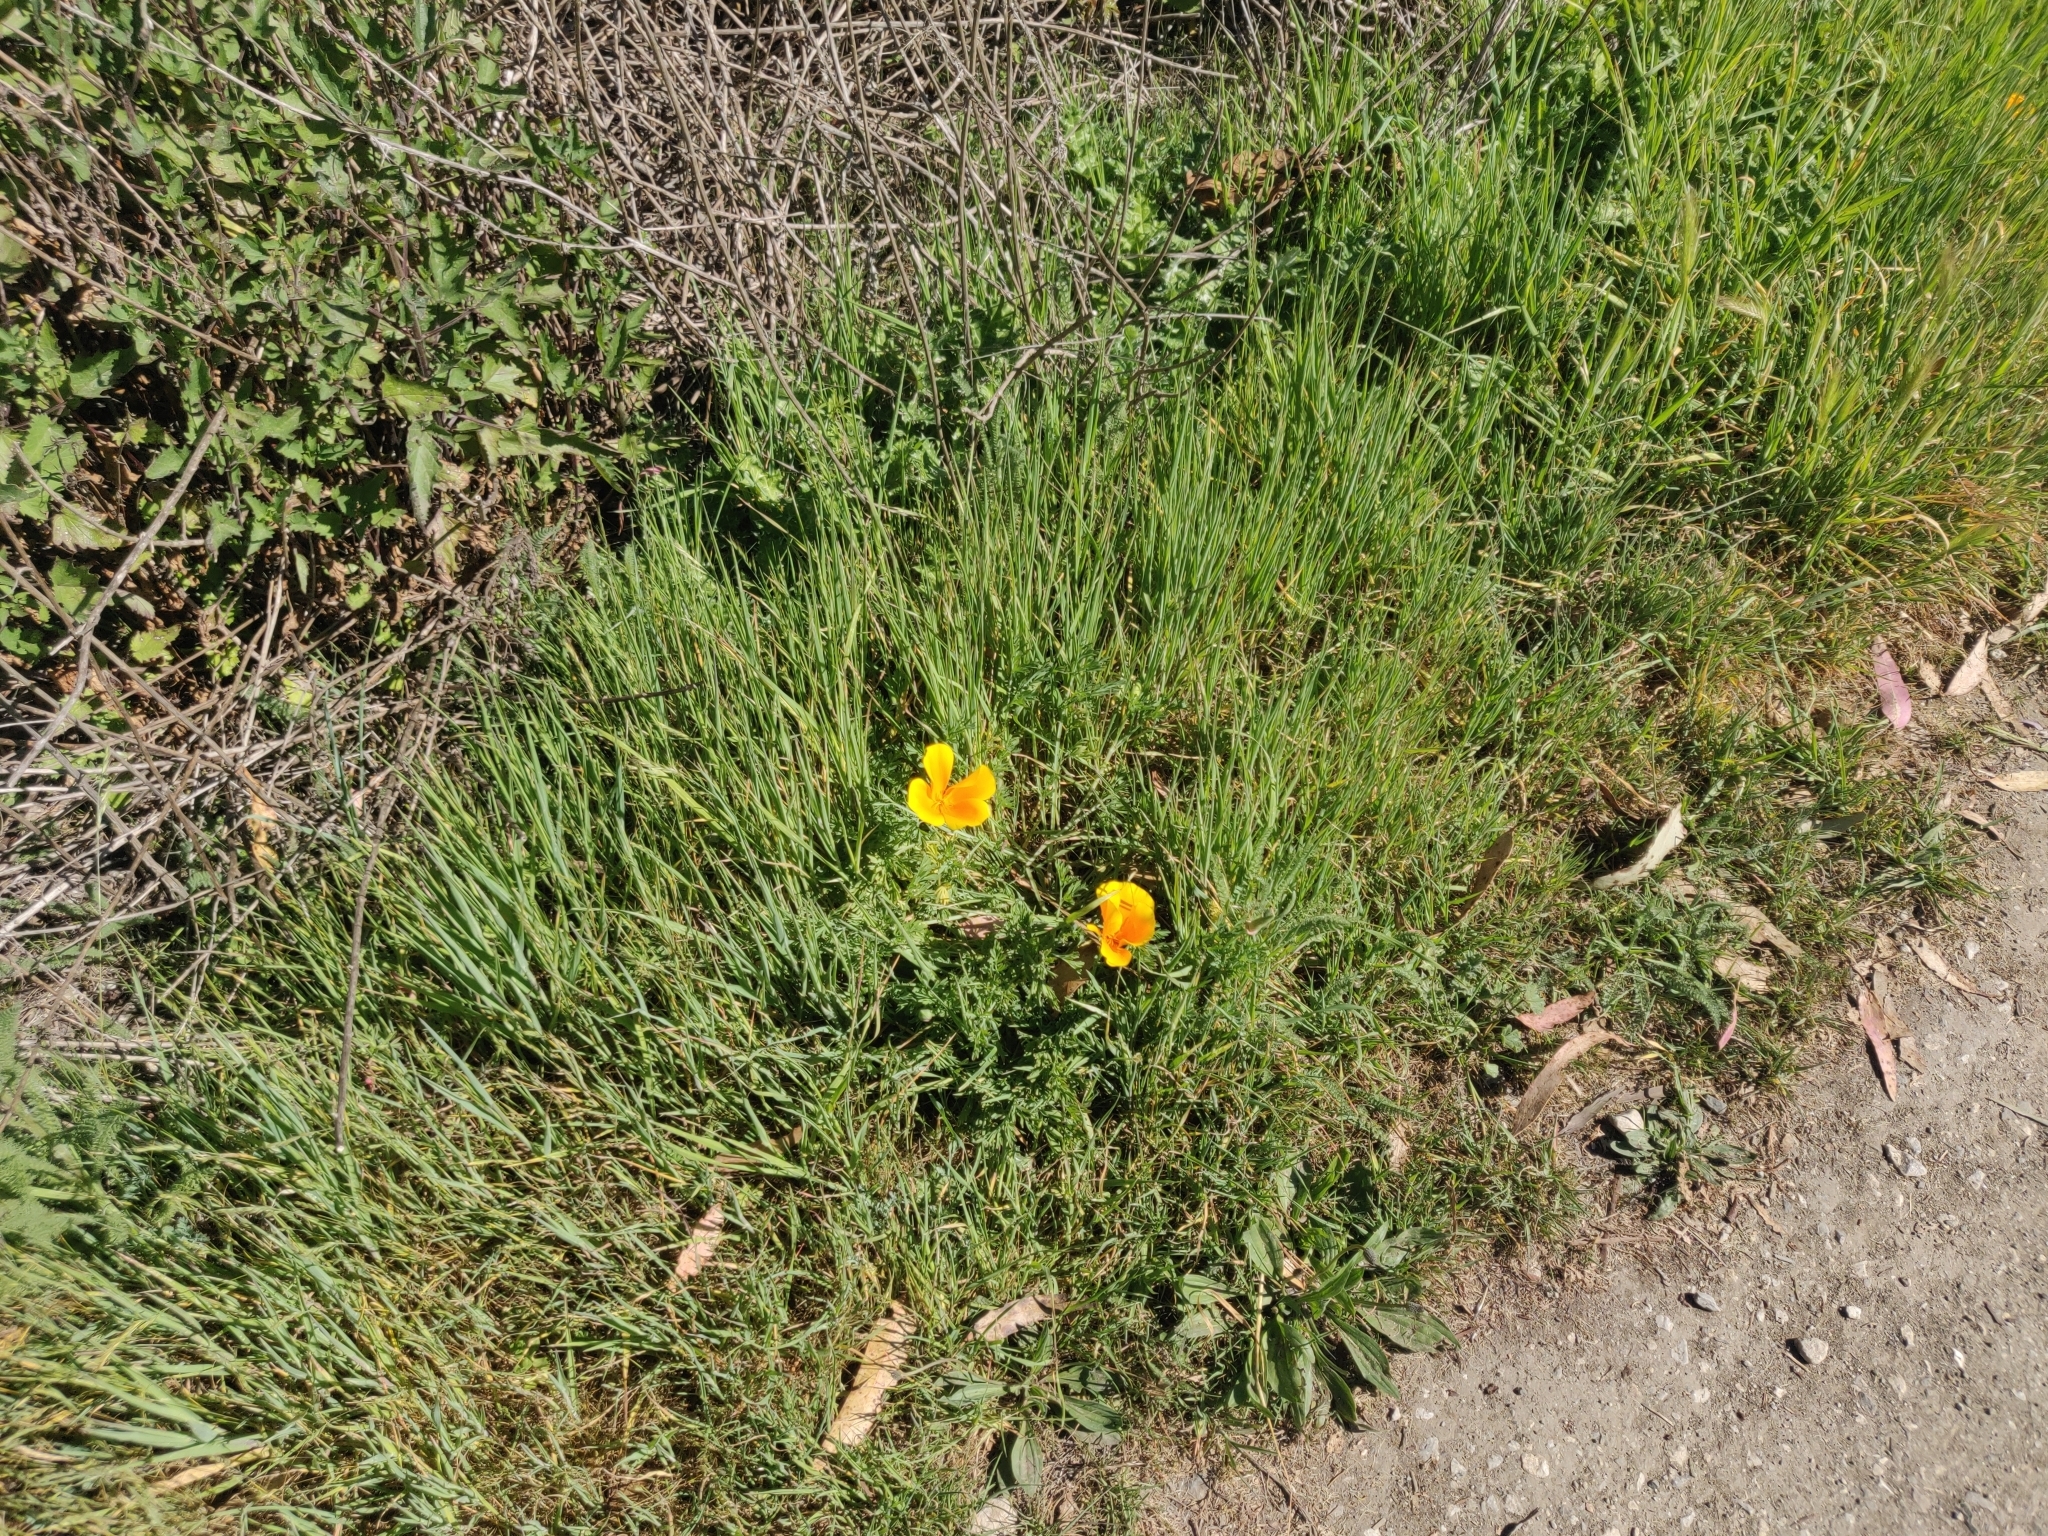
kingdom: Plantae
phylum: Tracheophyta
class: Magnoliopsida
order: Ranunculales
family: Papaveraceae
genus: Eschscholzia
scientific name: Eschscholzia californica
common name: California poppy
